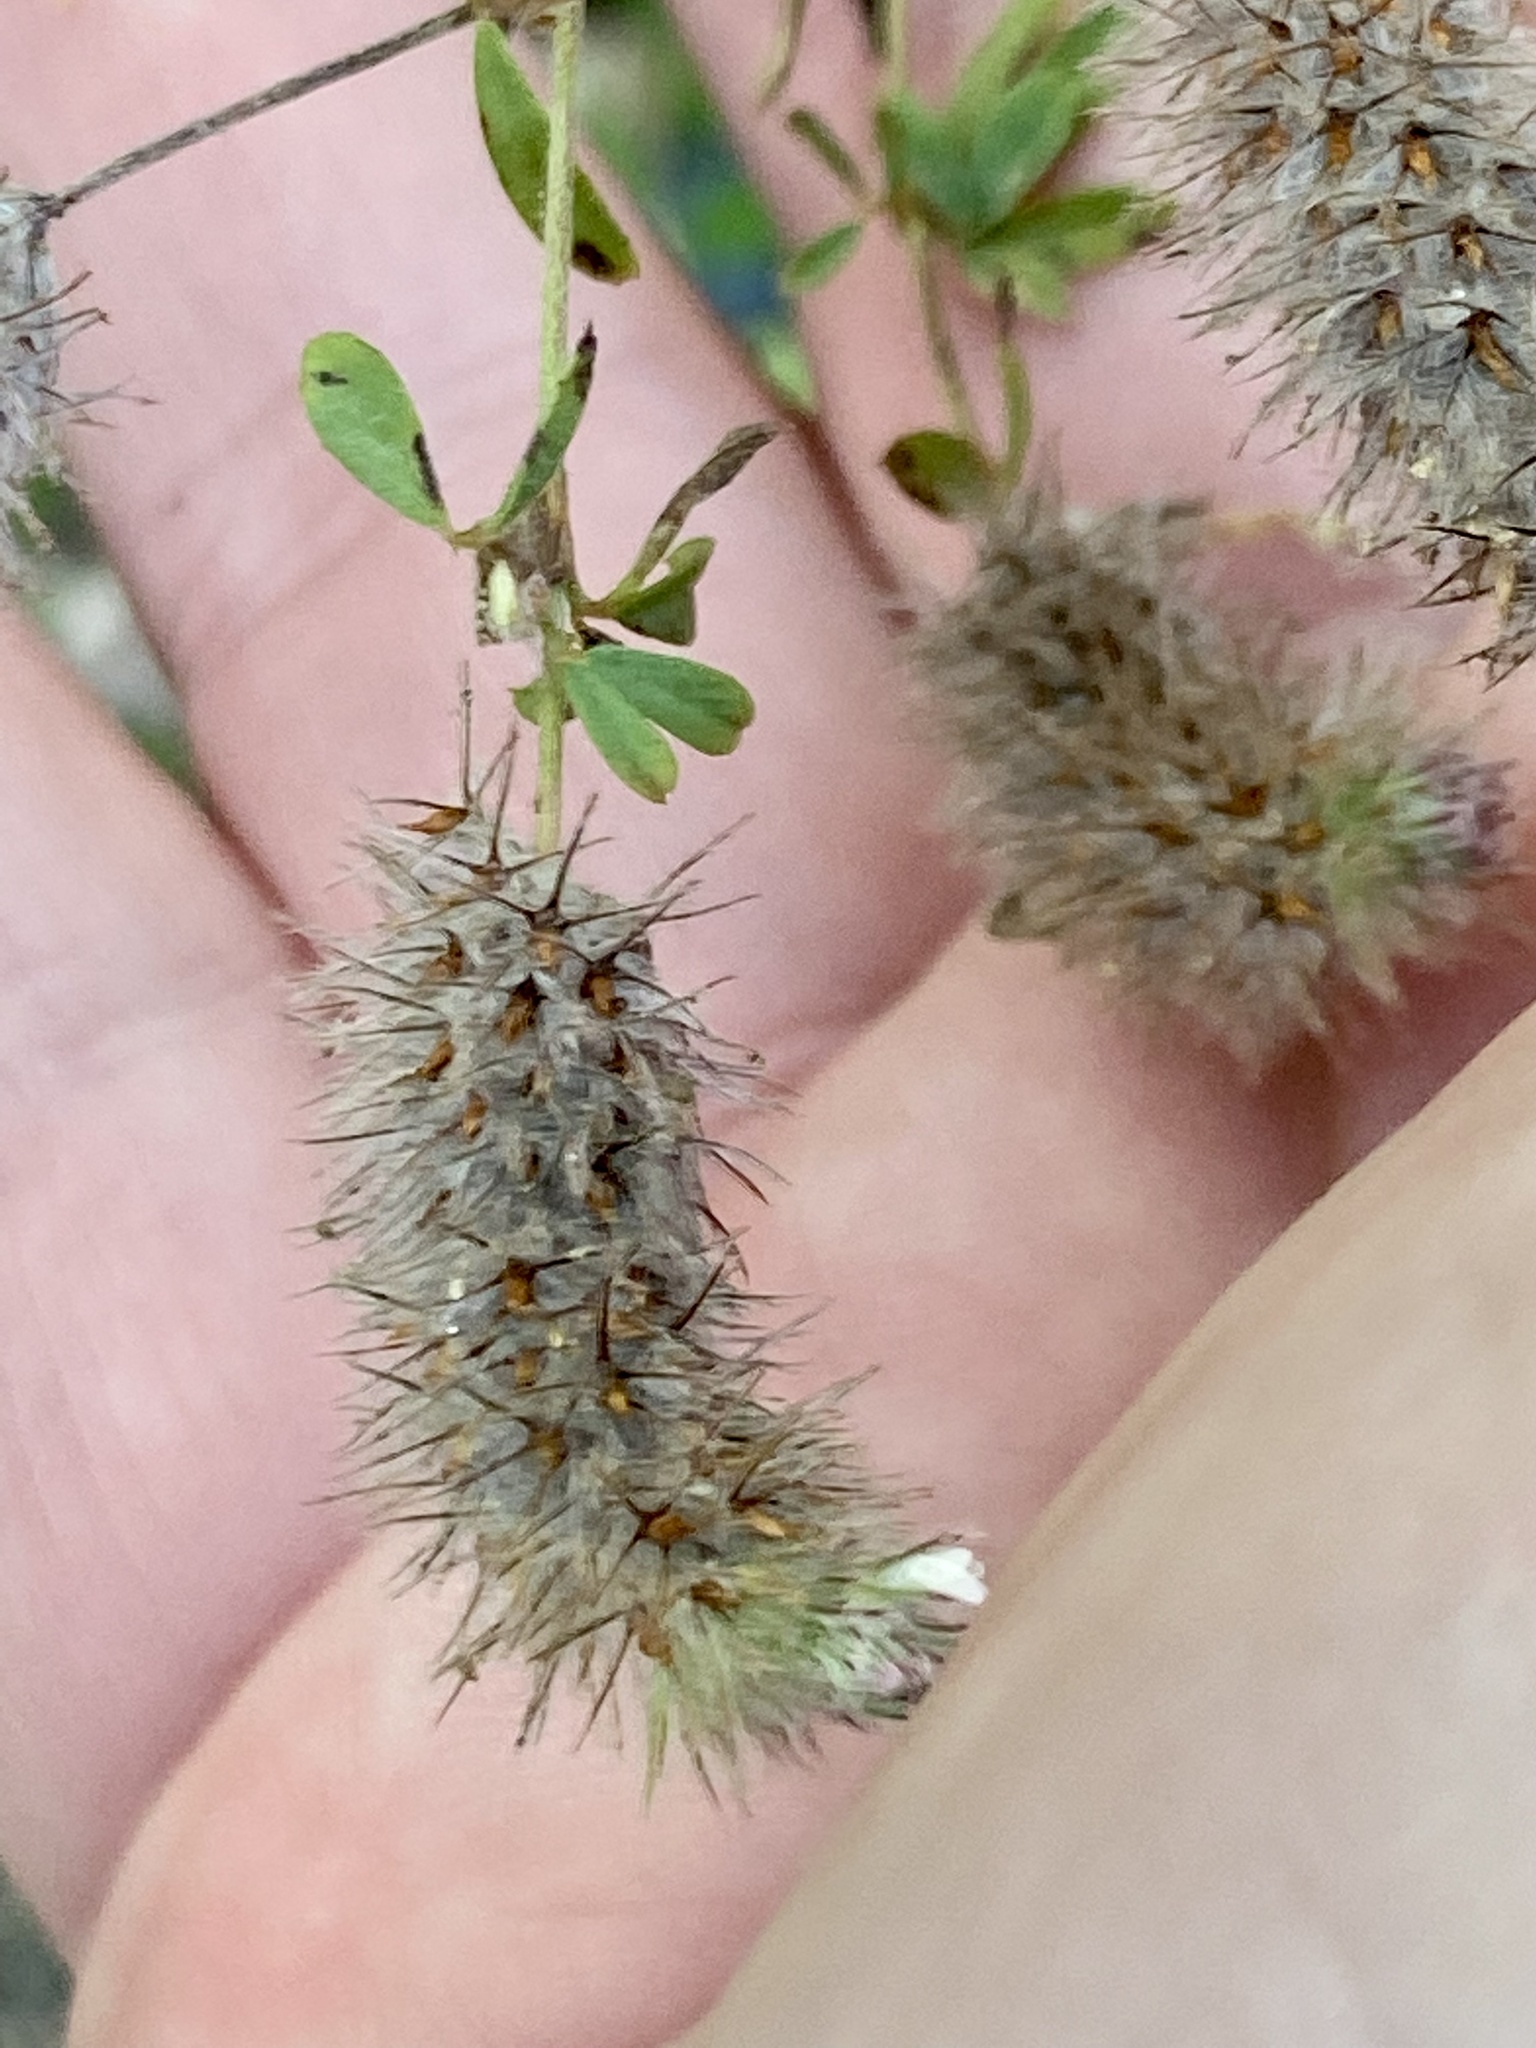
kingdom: Plantae
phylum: Tracheophyta
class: Magnoliopsida
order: Fabales
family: Fabaceae
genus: Trifolium
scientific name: Trifolium arvense
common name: Hare's-foot clover
